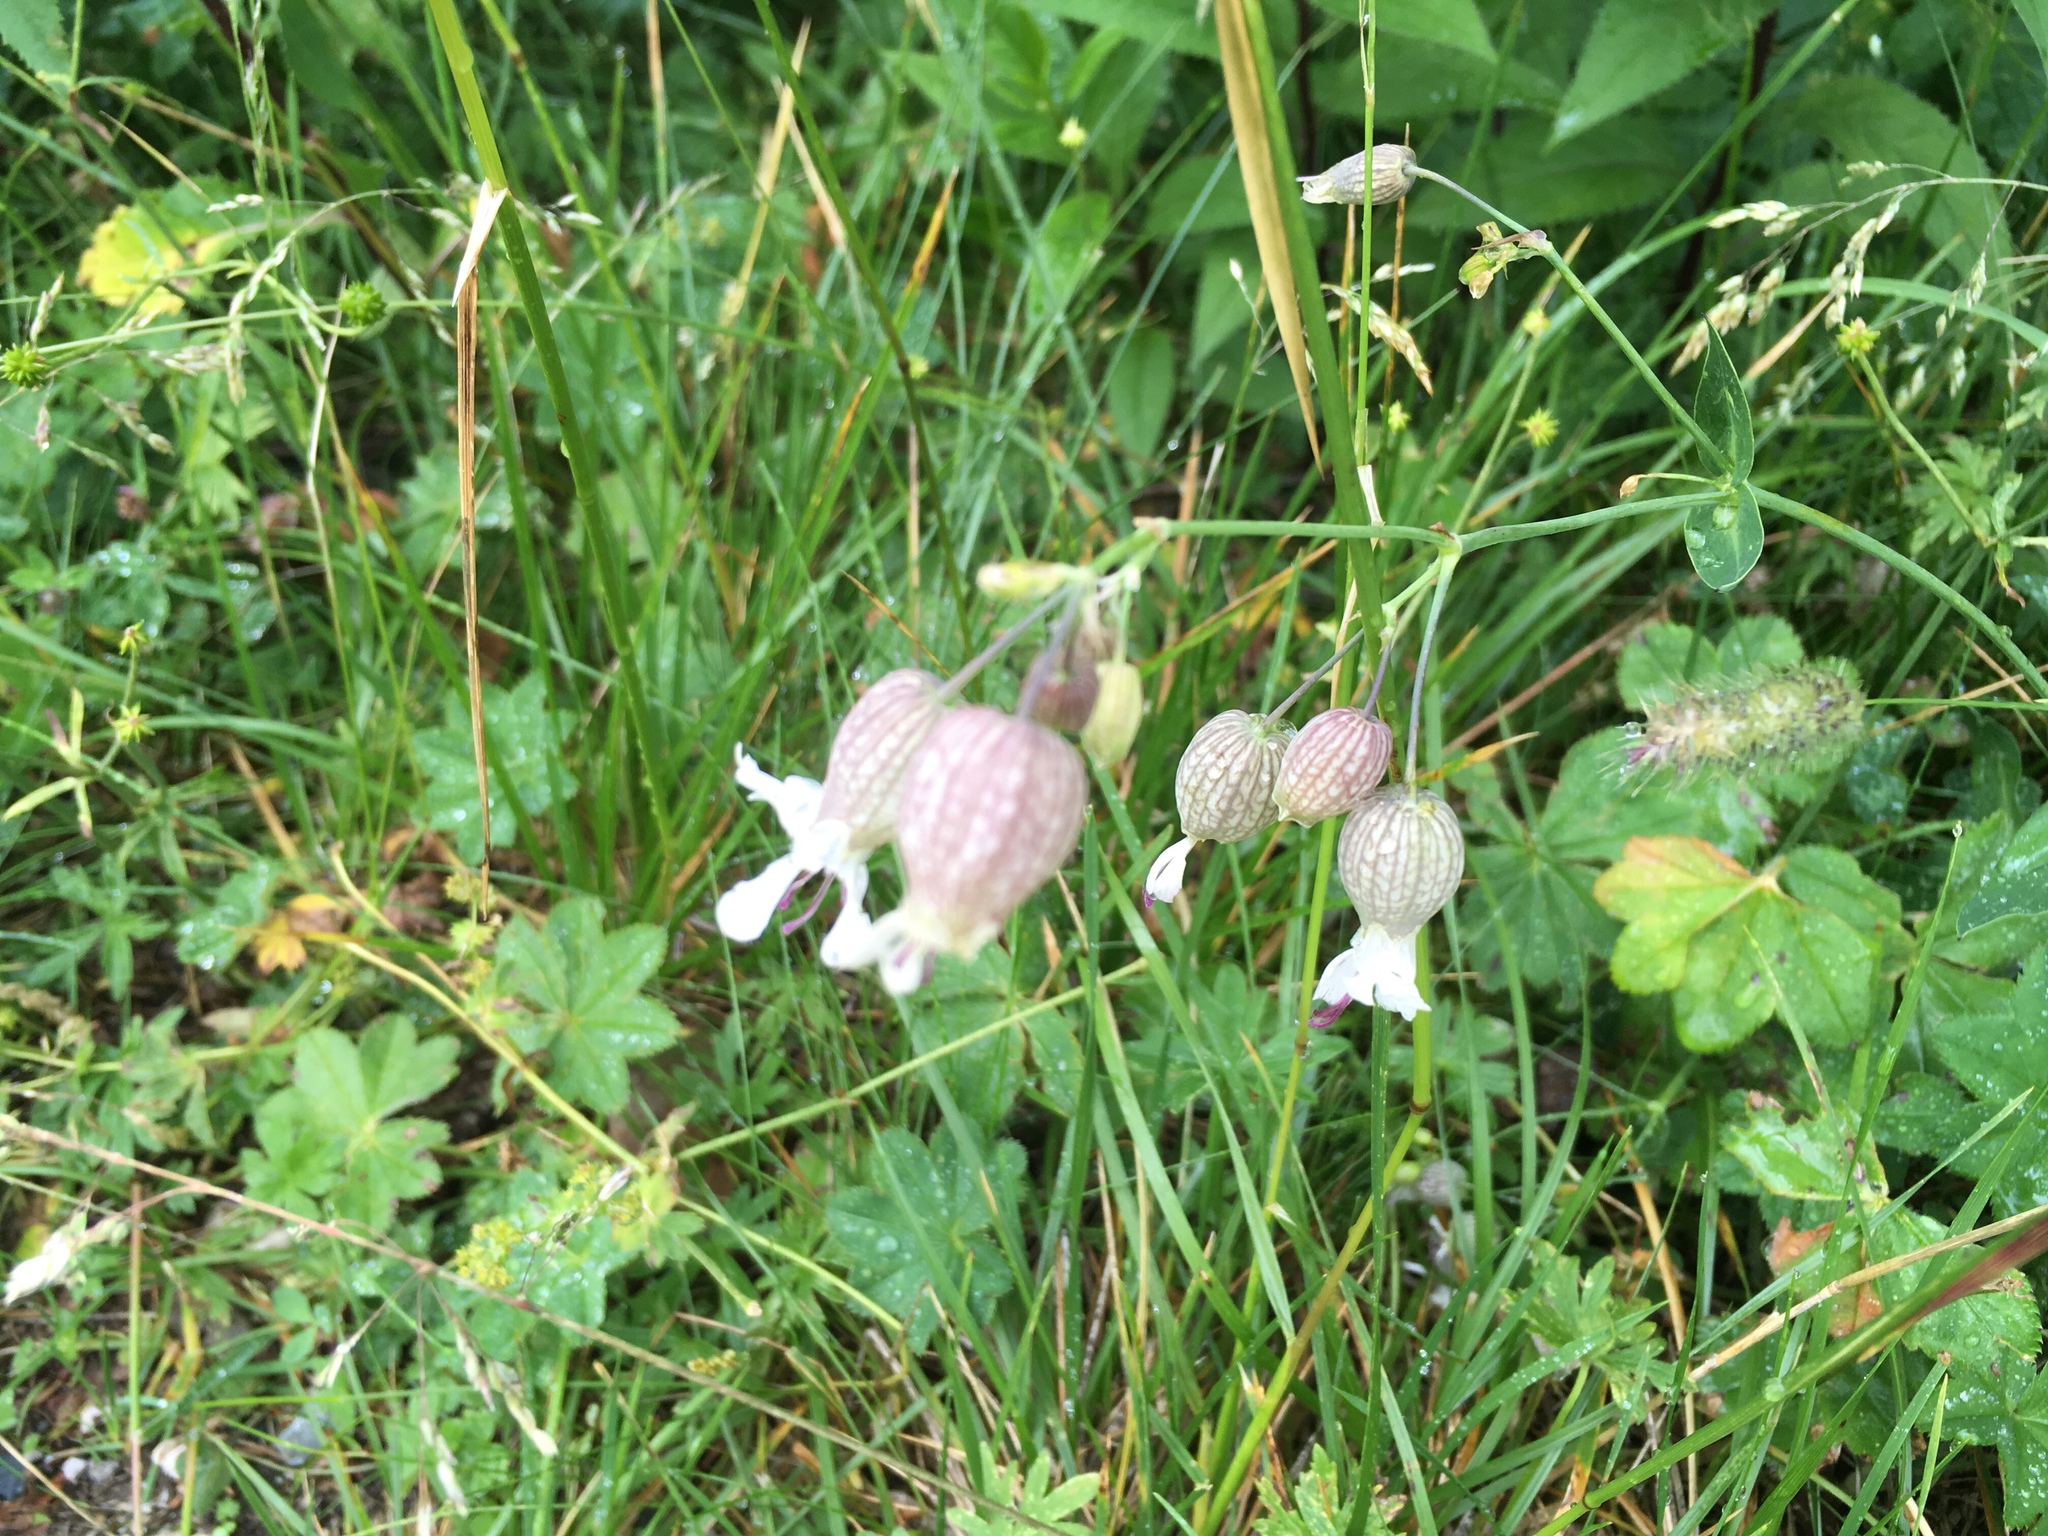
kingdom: Plantae
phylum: Tracheophyta
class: Magnoliopsida
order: Caryophyllales
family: Caryophyllaceae
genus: Silene
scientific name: Silene vulgaris
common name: Bladder campion
